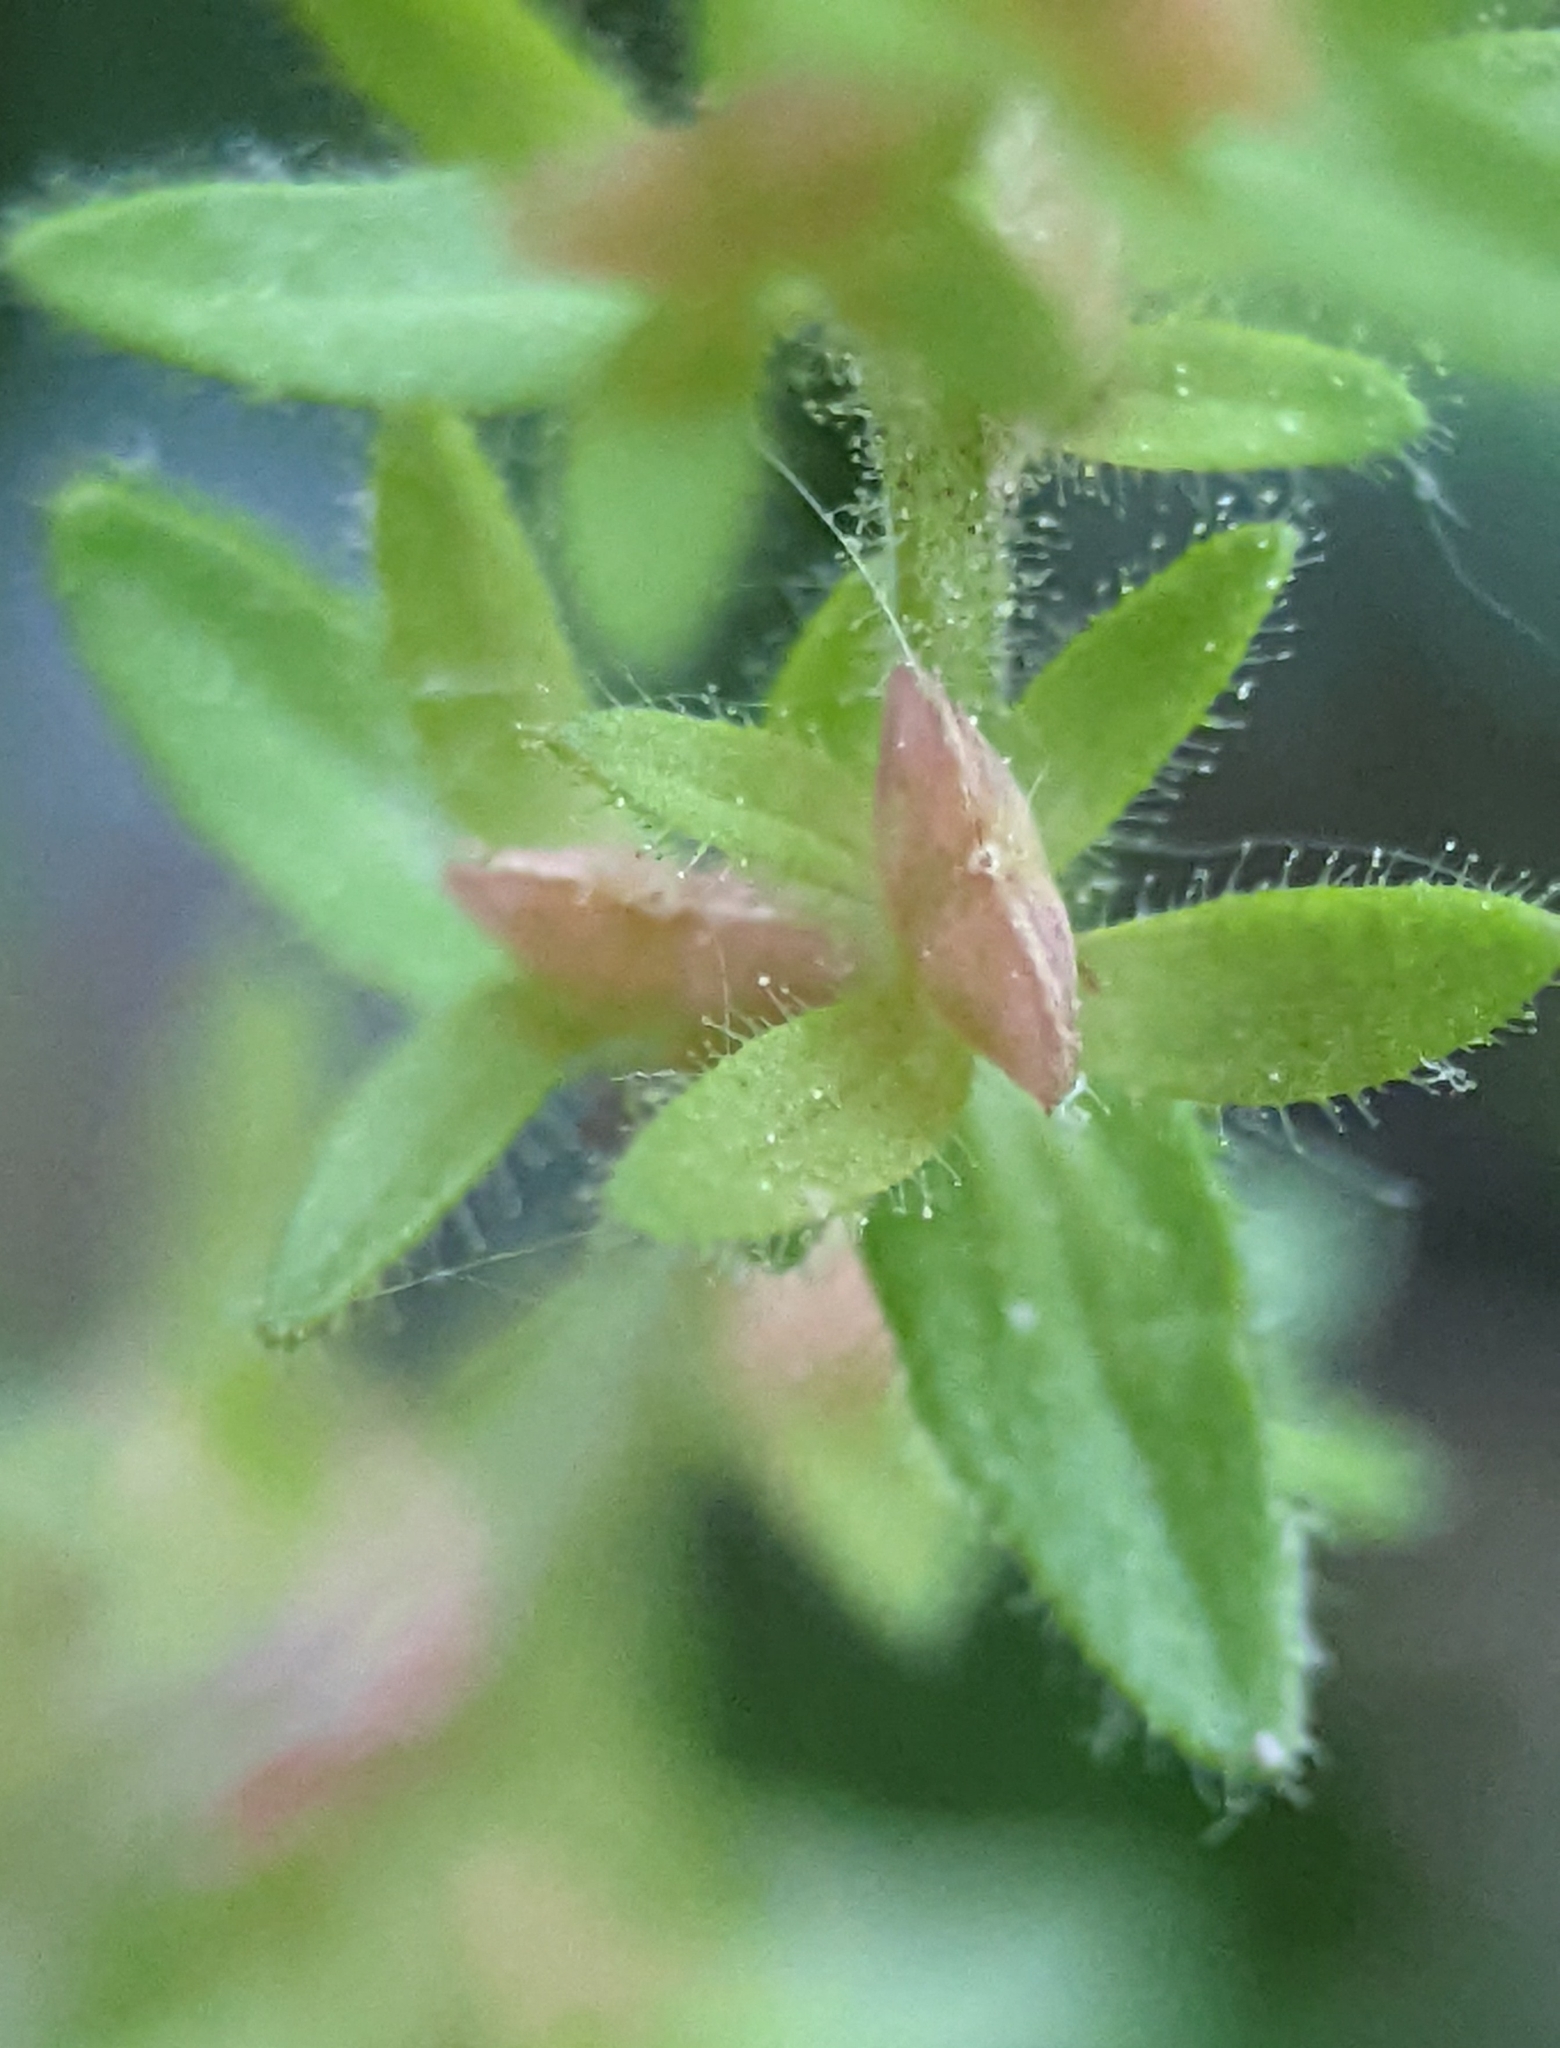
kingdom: Plantae
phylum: Tracheophyta
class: Magnoliopsida
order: Lamiales
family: Plantaginaceae
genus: Veronica
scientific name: Veronica arvensis
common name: Corn speedwell
